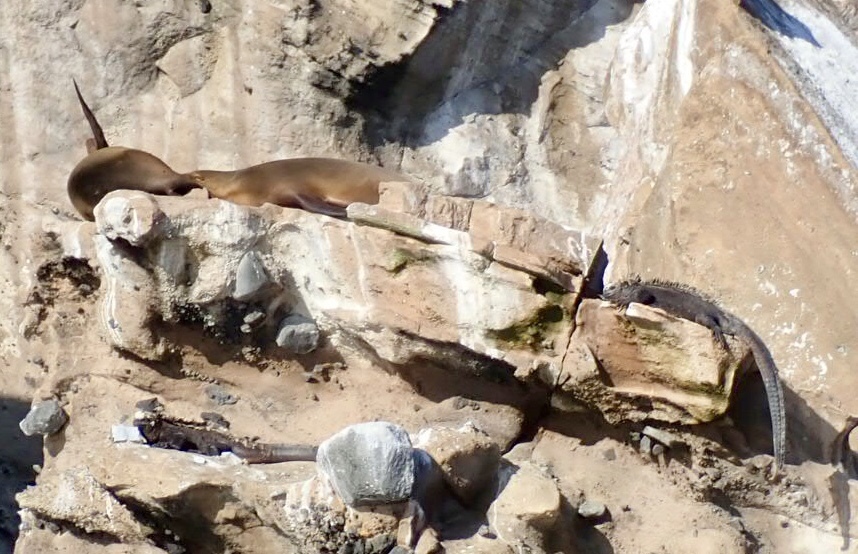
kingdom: Animalia
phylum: Chordata
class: Mammalia
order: Carnivora
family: Otariidae
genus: Zalophus
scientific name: Zalophus wollebaeki
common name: Galapagos sea lion
